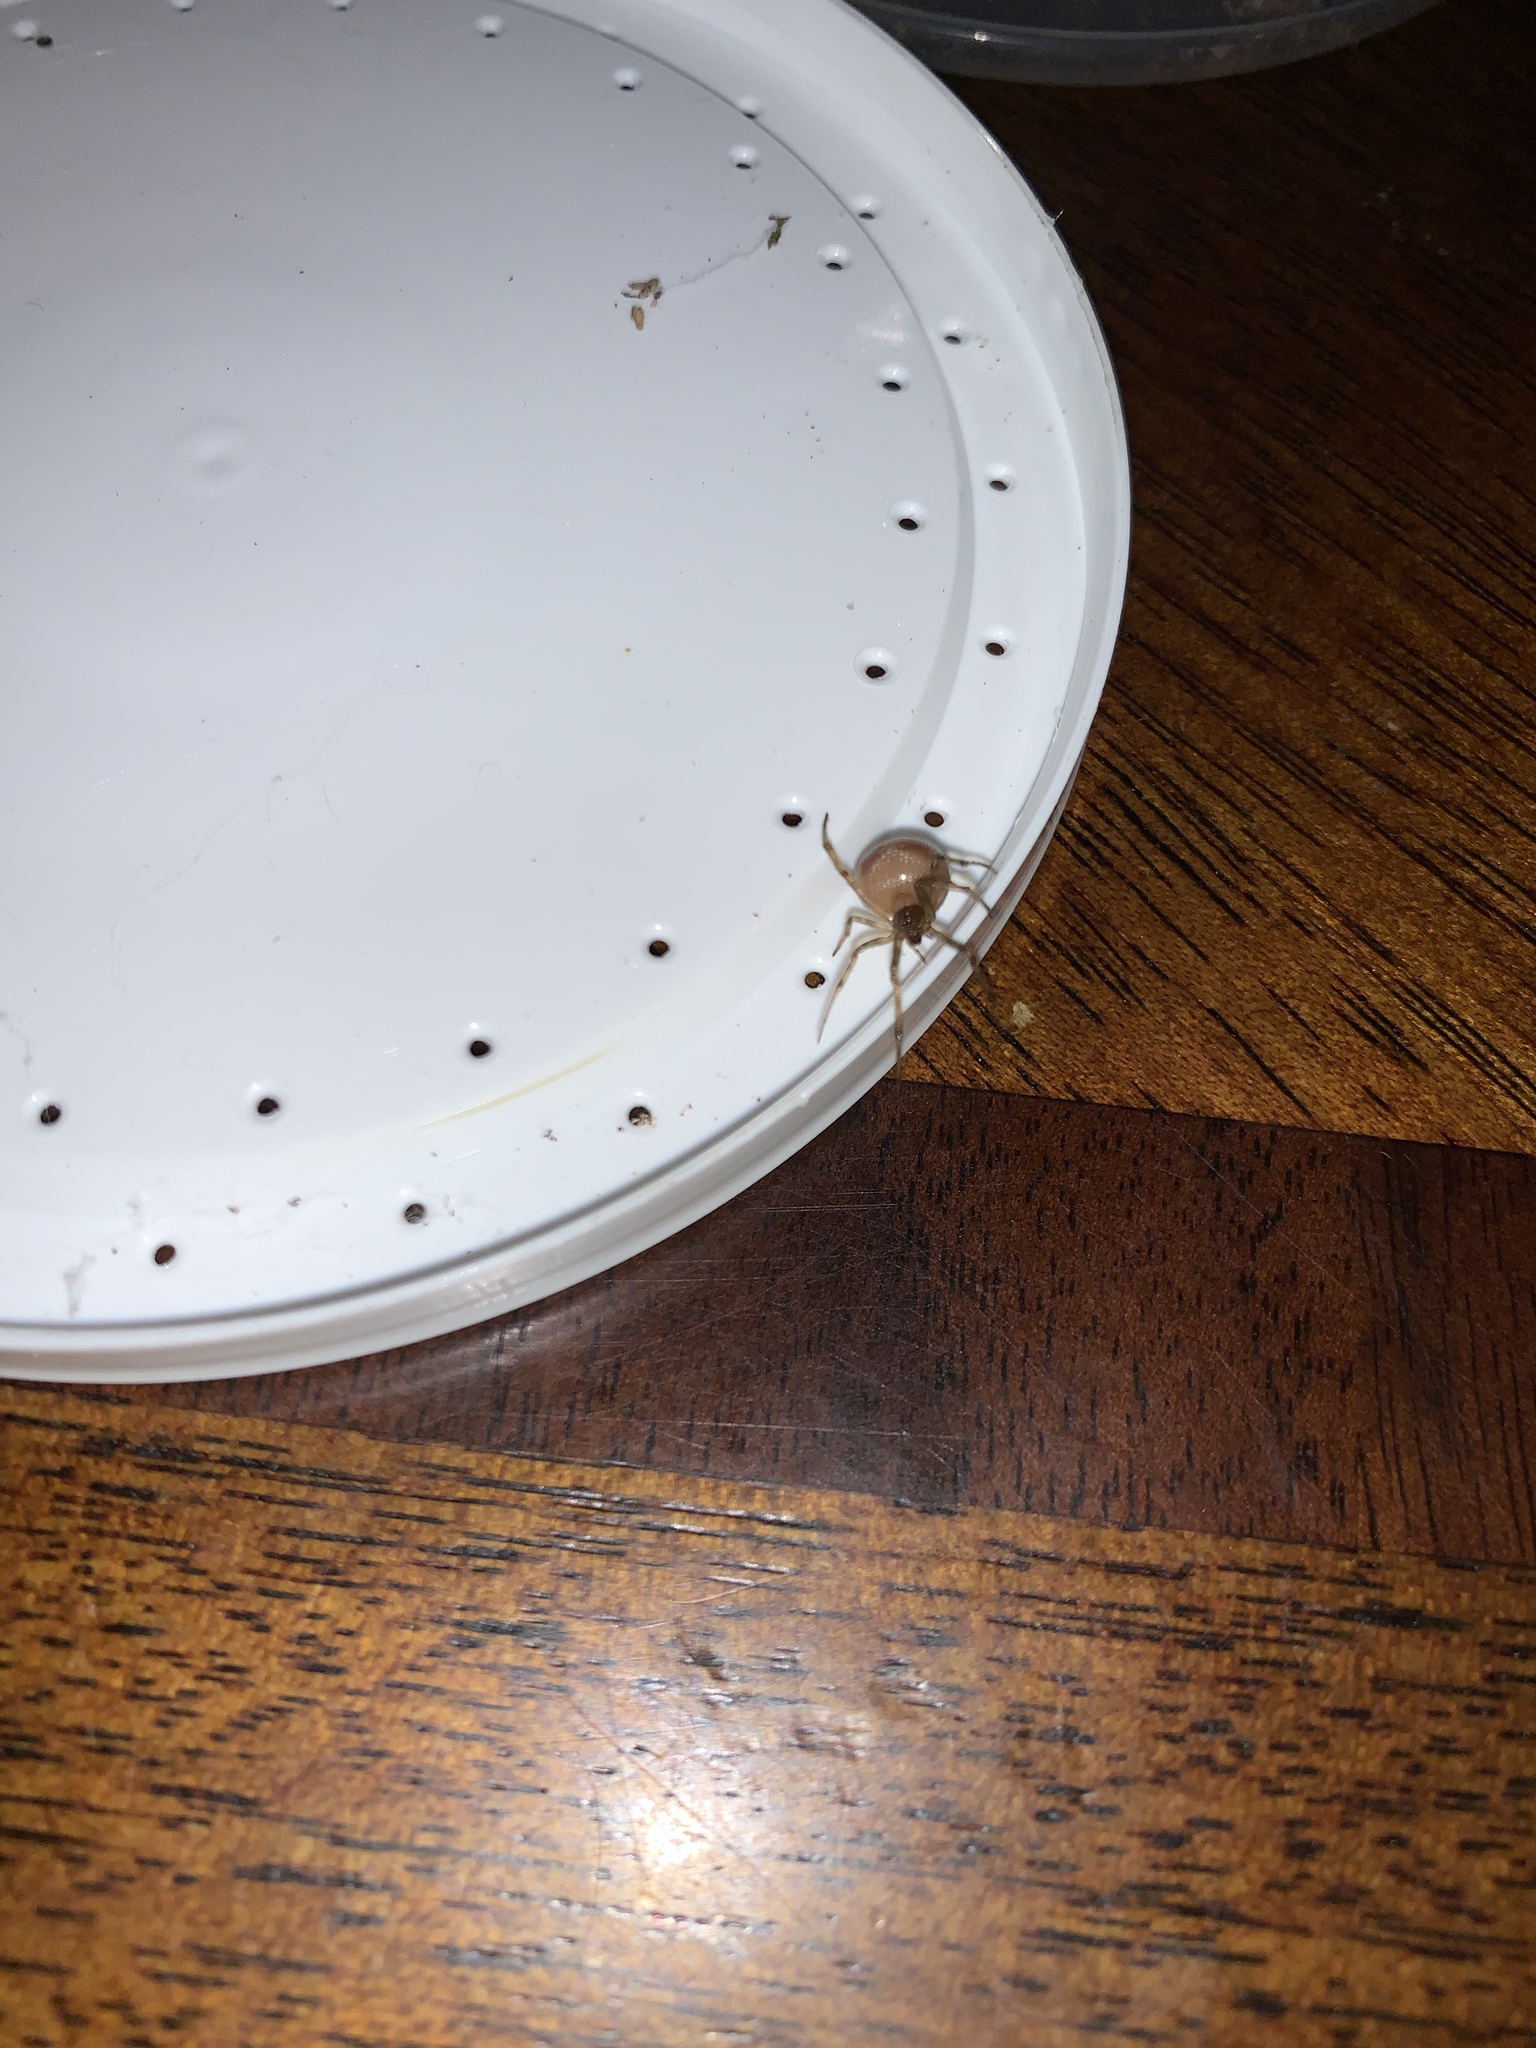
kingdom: Animalia
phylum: Arthropoda
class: Arachnida
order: Araneae
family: Theridiidae
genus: Steatoda
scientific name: Steatoda triangulosa
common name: Triangulate bud spider
